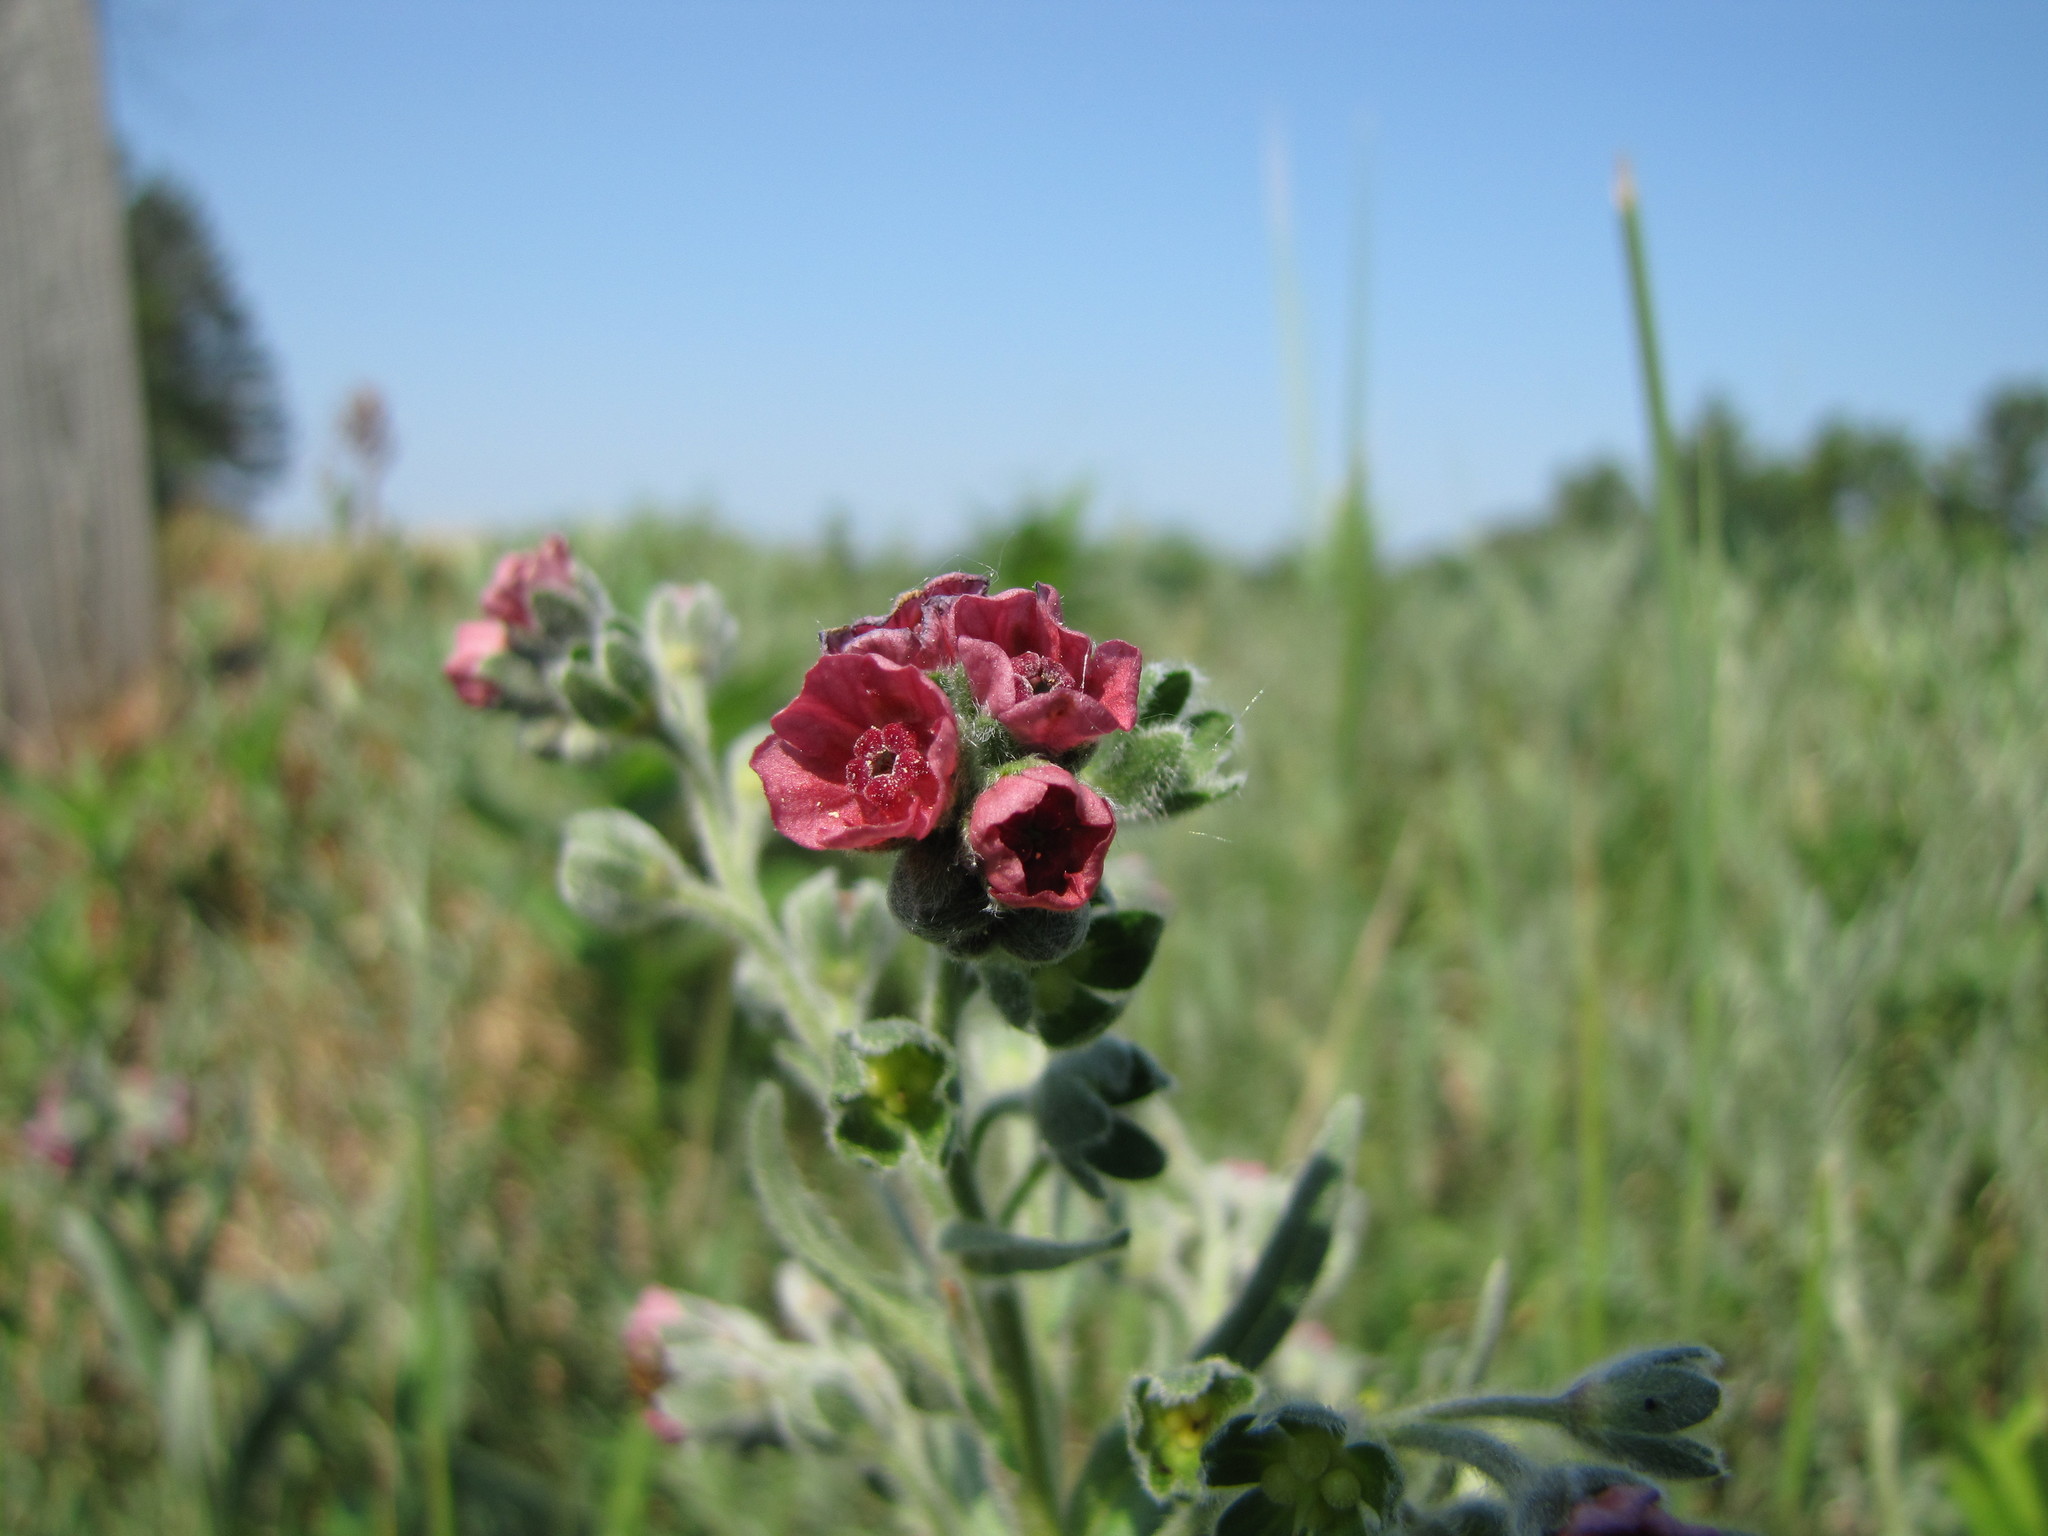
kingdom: Plantae
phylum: Tracheophyta
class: Magnoliopsida
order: Boraginales
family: Boraginaceae
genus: Cynoglossum
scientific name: Cynoglossum officinale
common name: Hound's-tongue
